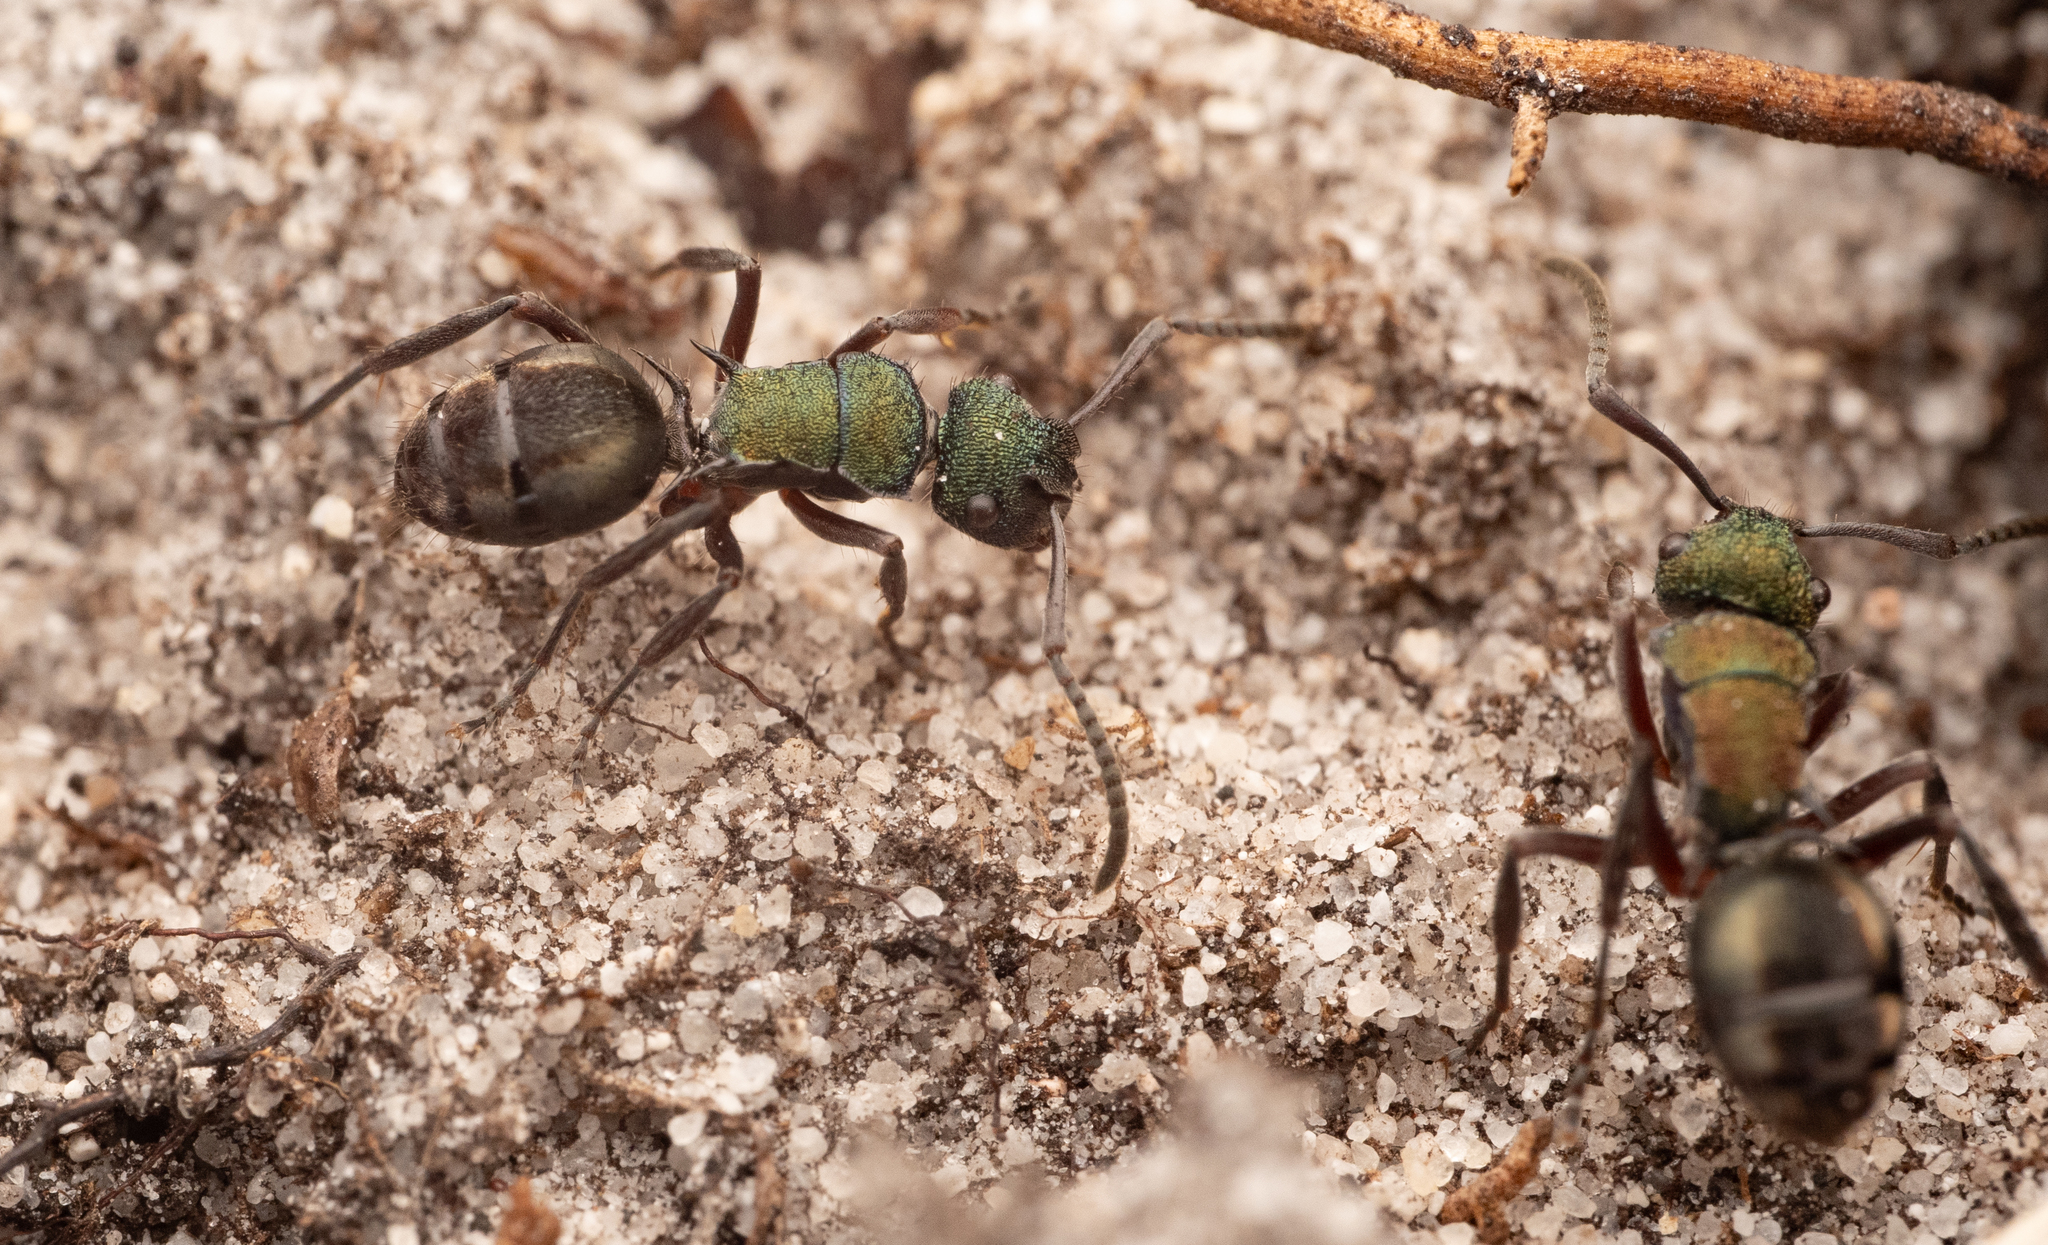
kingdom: Animalia
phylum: Arthropoda
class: Insecta
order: Hymenoptera
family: Formicidae
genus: Polyrhachis
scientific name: Polyrhachis hookeri
